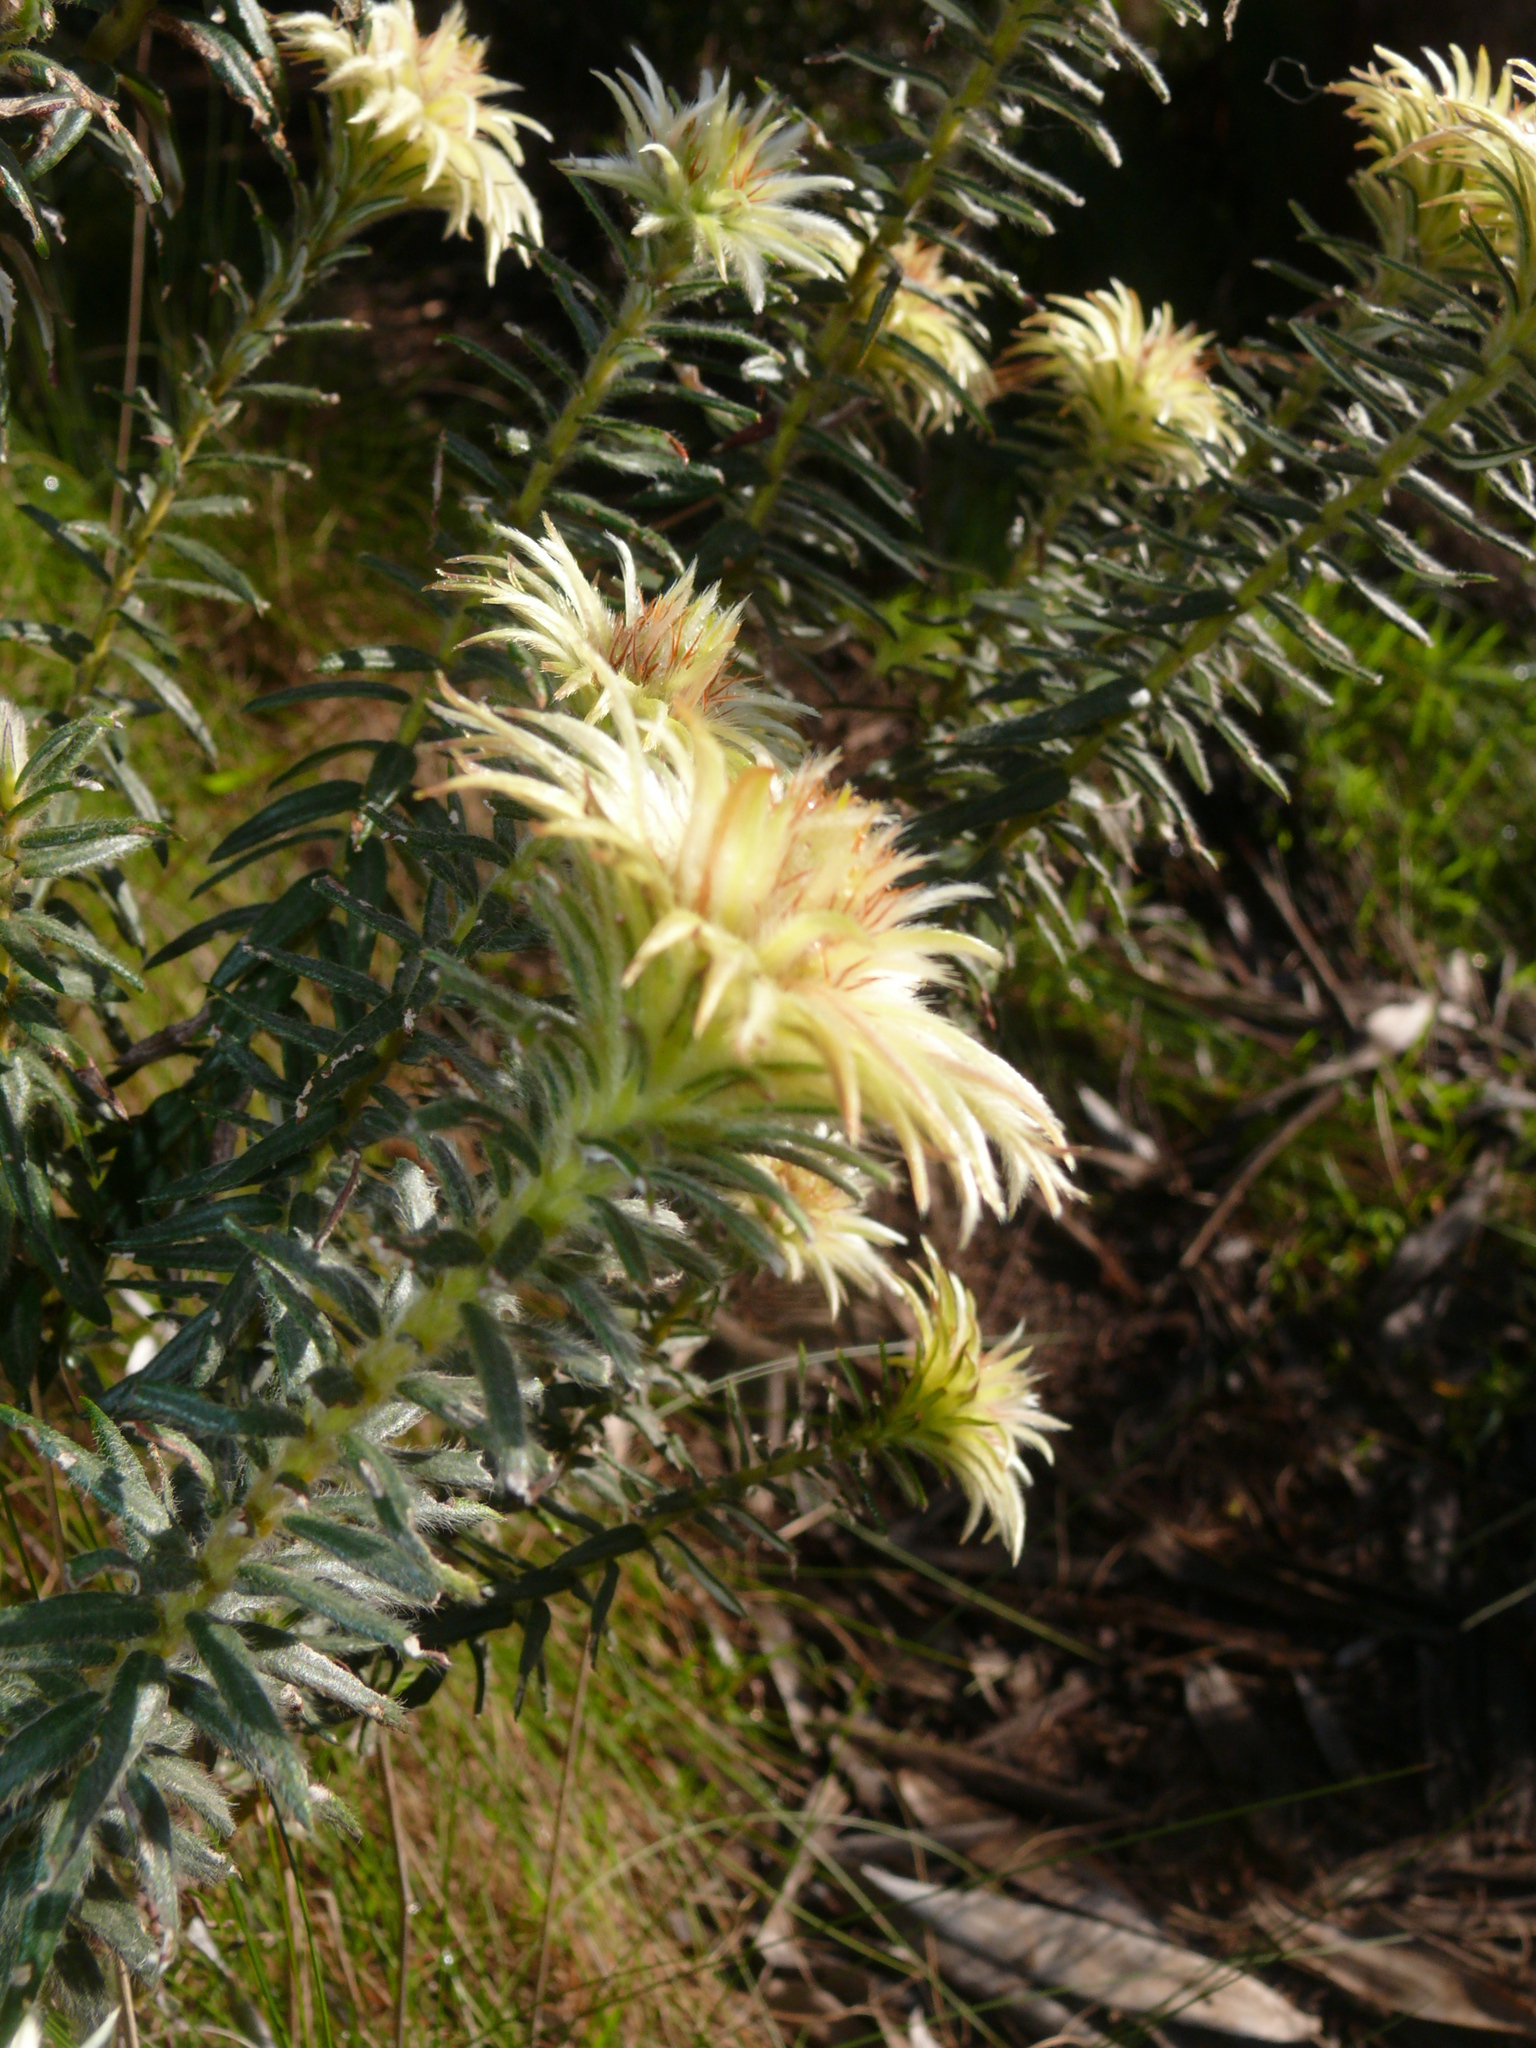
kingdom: Plantae
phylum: Tracheophyta
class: Magnoliopsida
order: Rosales
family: Rhamnaceae
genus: Phylica
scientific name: Phylica pubescens
